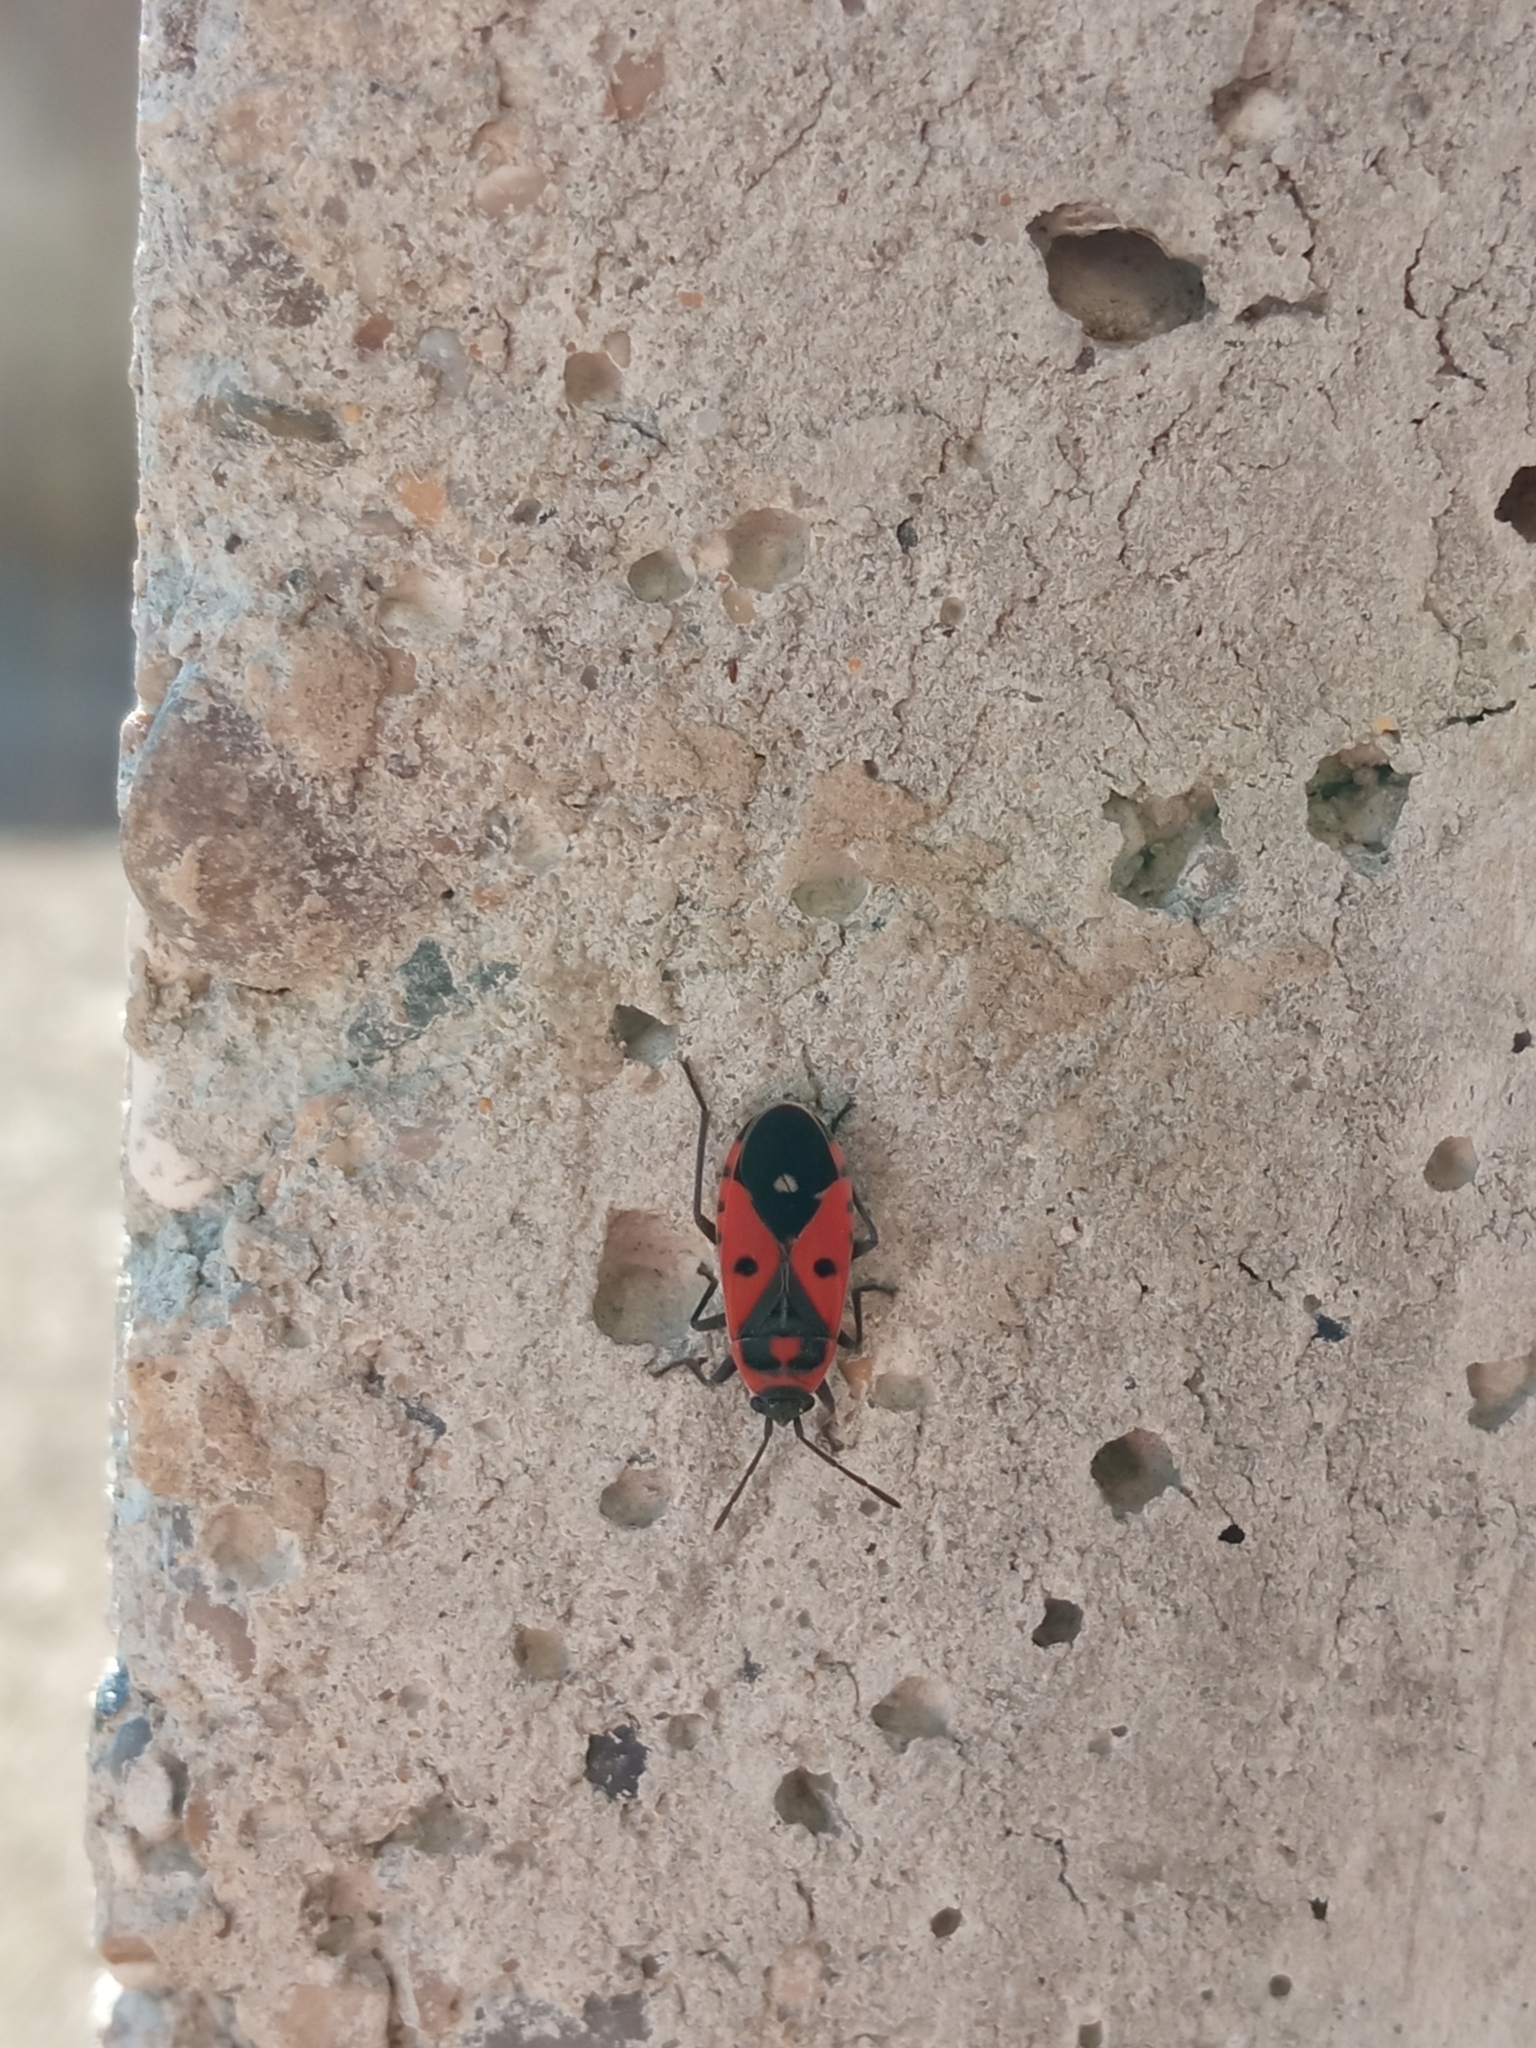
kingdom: Animalia
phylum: Arthropoda
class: Insecta
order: Hemiptera
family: Lygaeidae
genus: Melanocoryphus
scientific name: Melanocoryphus albomaculatus
